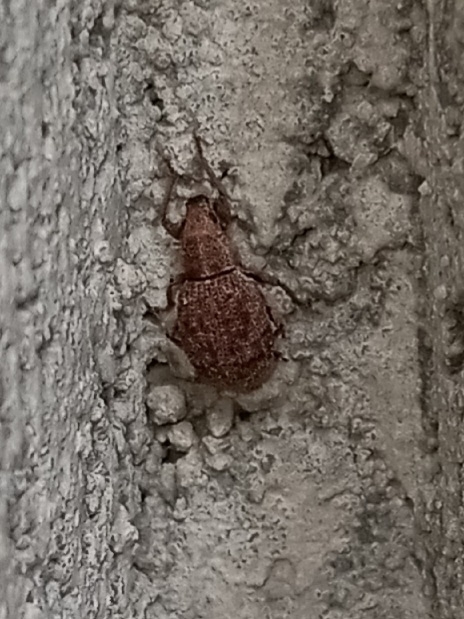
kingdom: Animalia
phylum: Arthropoda
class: Insecta
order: Coleoptera
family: Curculionidae
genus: Sciaphilus
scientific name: Sciaphilus asperatus
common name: Weevil
